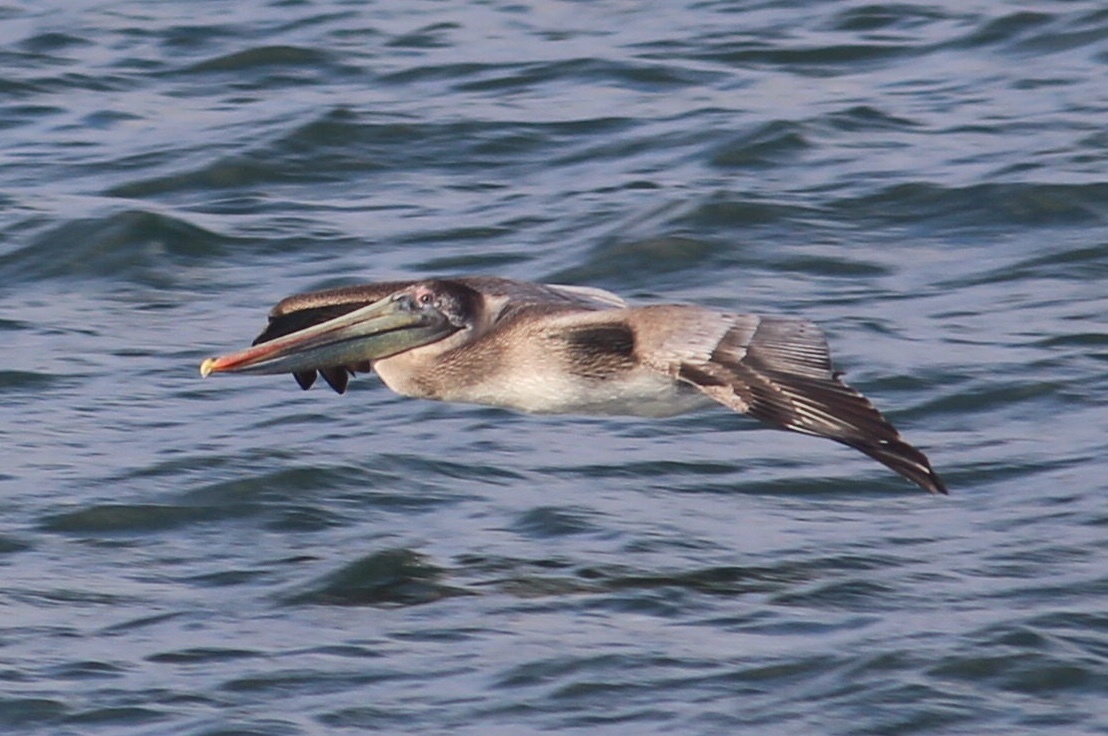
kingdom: Animalia
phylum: Chordata
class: Aves
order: Pelecaniformes
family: Pelecanidae
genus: Pelecanus
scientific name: Pelecanus occidentalis
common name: Brown pelican
